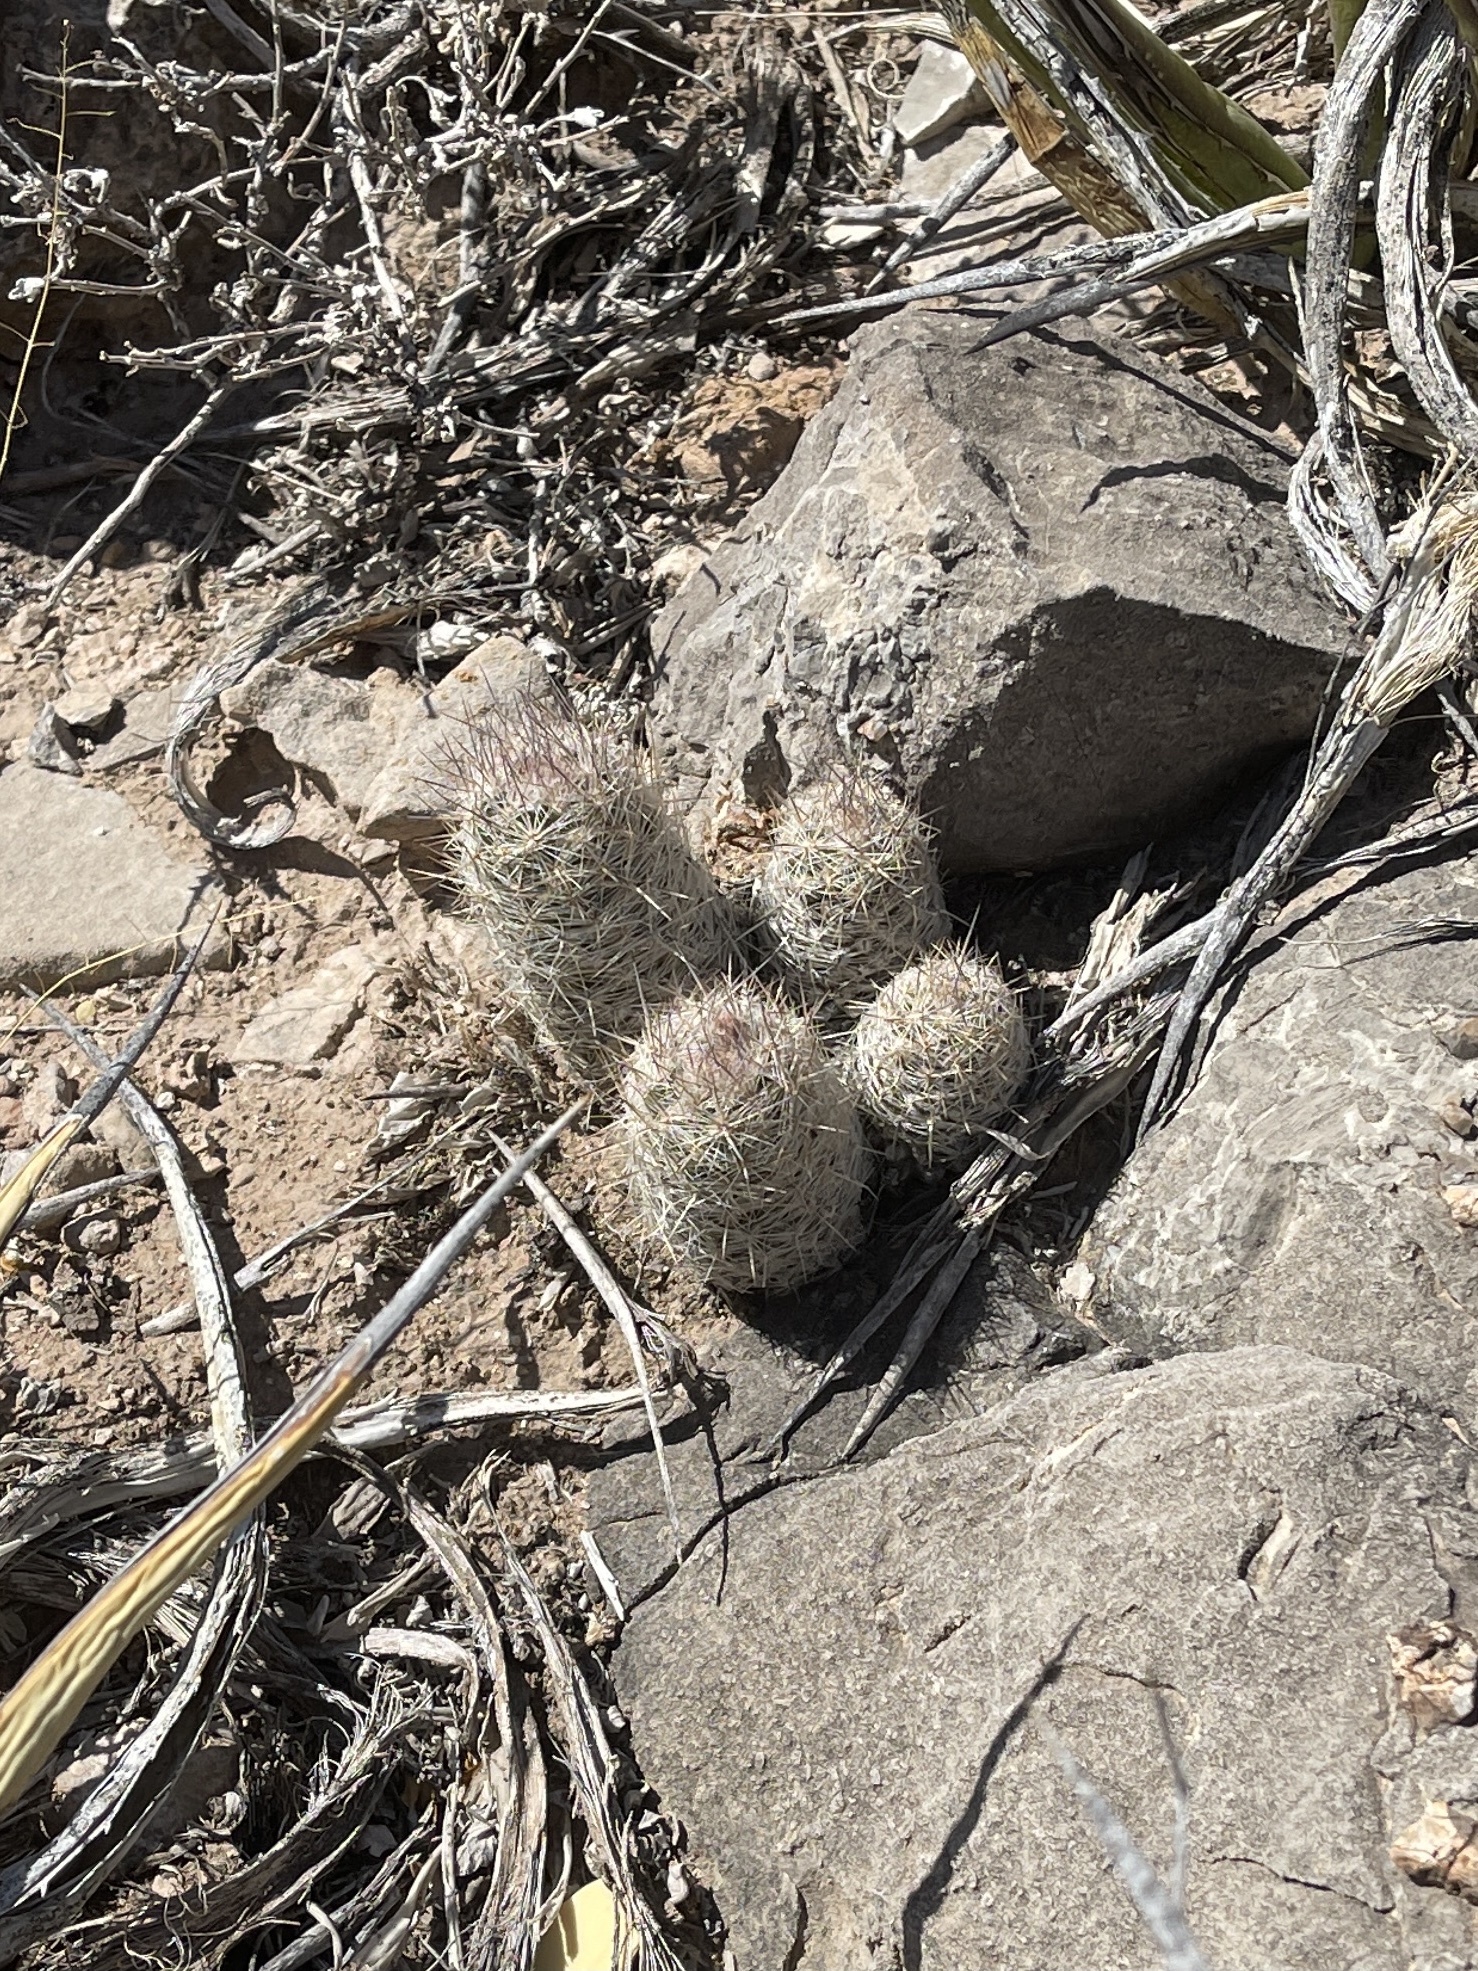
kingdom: Plantae
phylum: Tracheophyta
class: Magnoliopsida
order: Caryophyllales
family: Cactaceae
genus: Pelecyphora
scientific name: Pelecyphora tuberculosa
